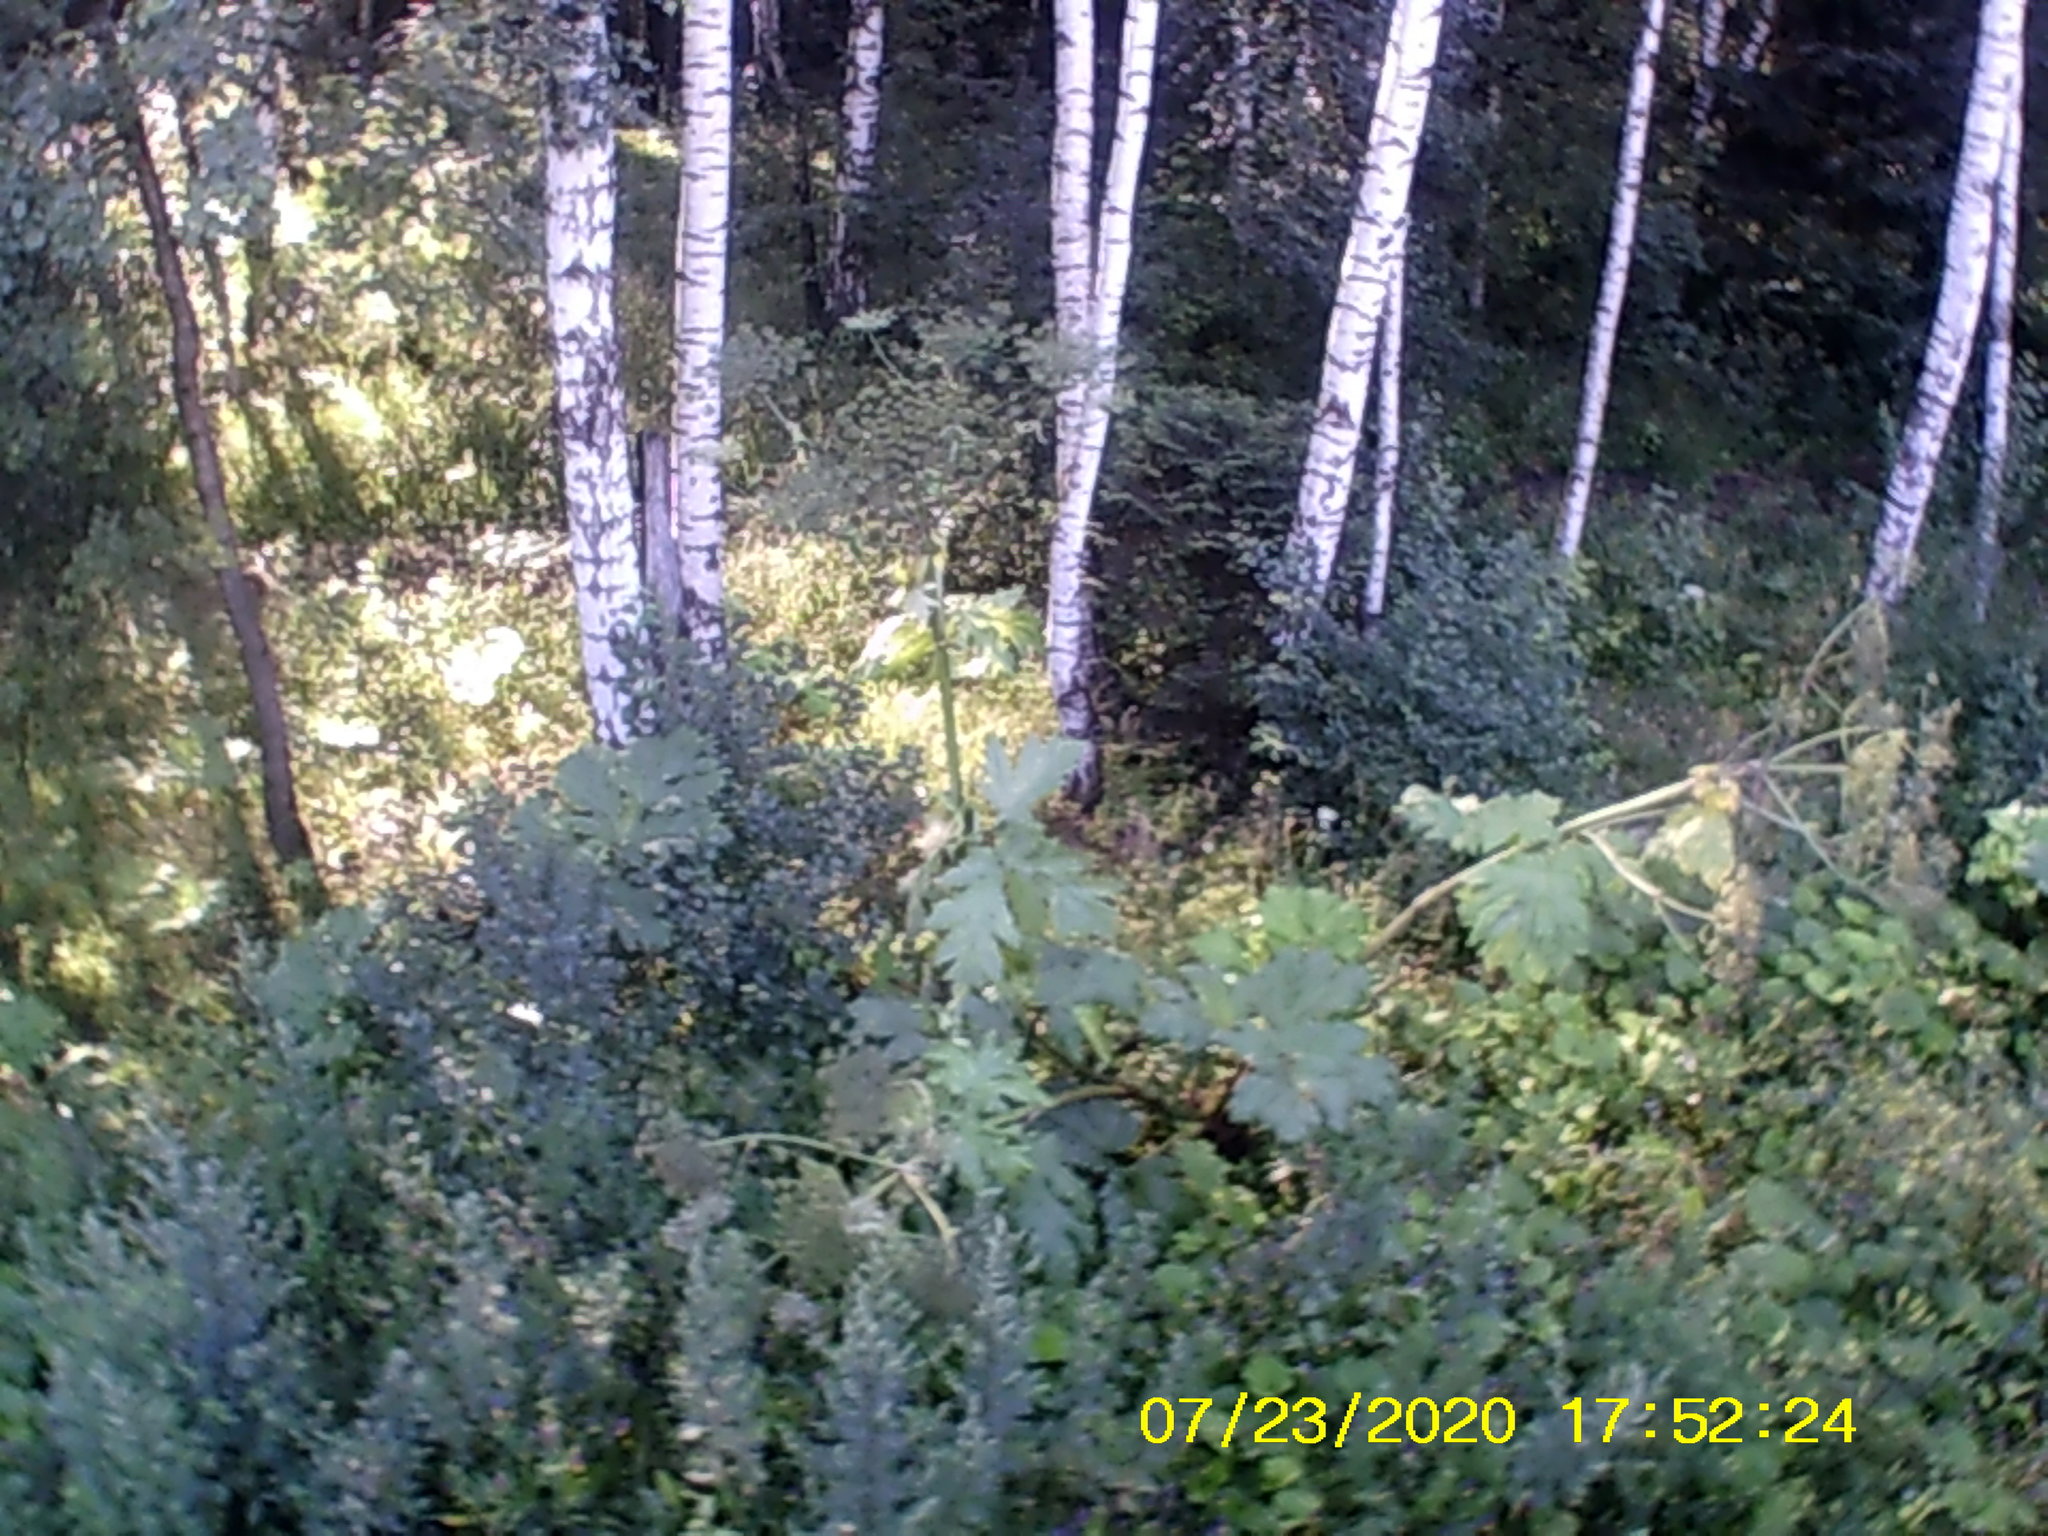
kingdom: Plantae
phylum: Tracheophyta
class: Magnoliopsida
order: Apiales
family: Apiaceae
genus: Heracleum
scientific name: Heracleum sosnowskyi
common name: Sosnowsky's hogweed
